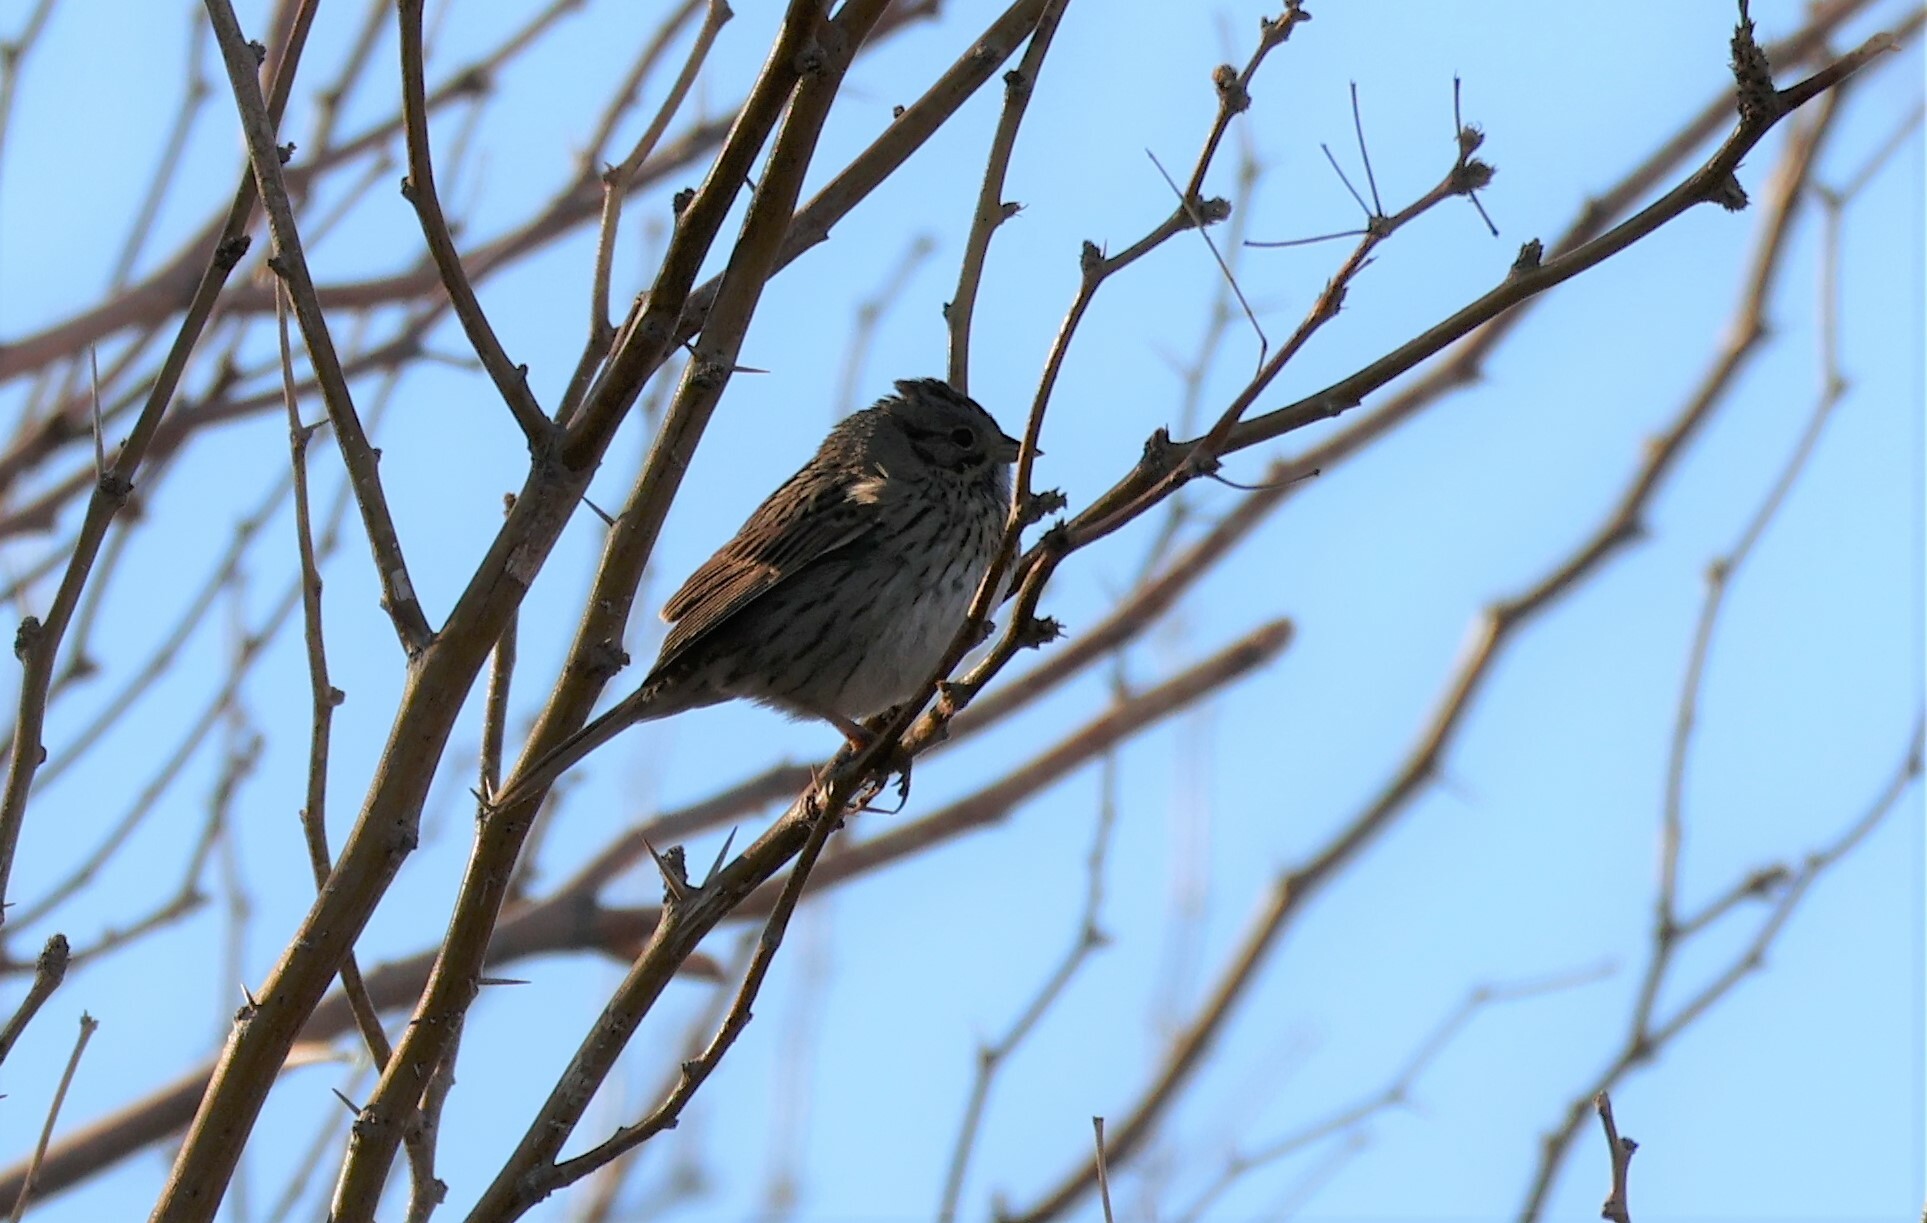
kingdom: Animalia
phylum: Chordata
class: Aves
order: Passeriformes
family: Passerellidae
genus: Melospiza
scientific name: Melospiza lincolnii
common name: Lincoln's sparrow
